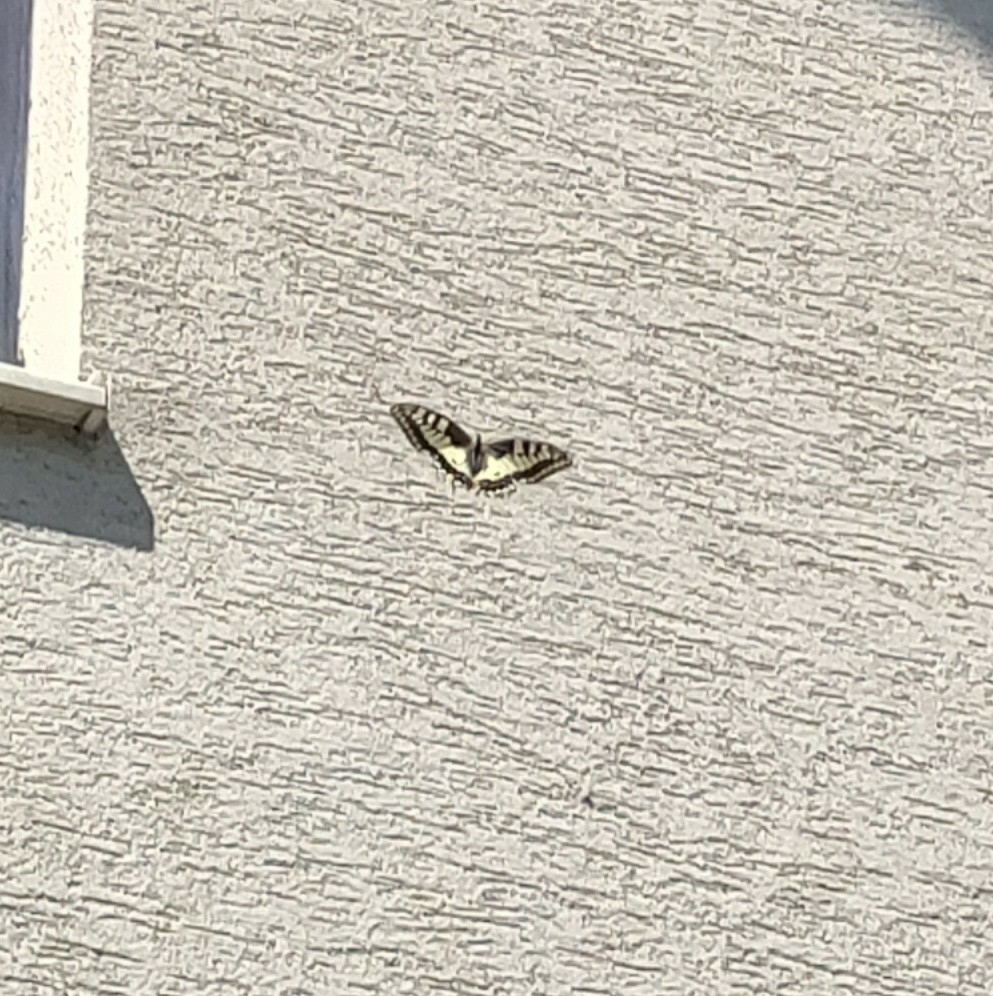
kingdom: Animalia
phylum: Arthropoda
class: Insecta
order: Lepidoptera
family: Papilionidae
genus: Papilio
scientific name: Papilio machaon
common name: Swallowtail
